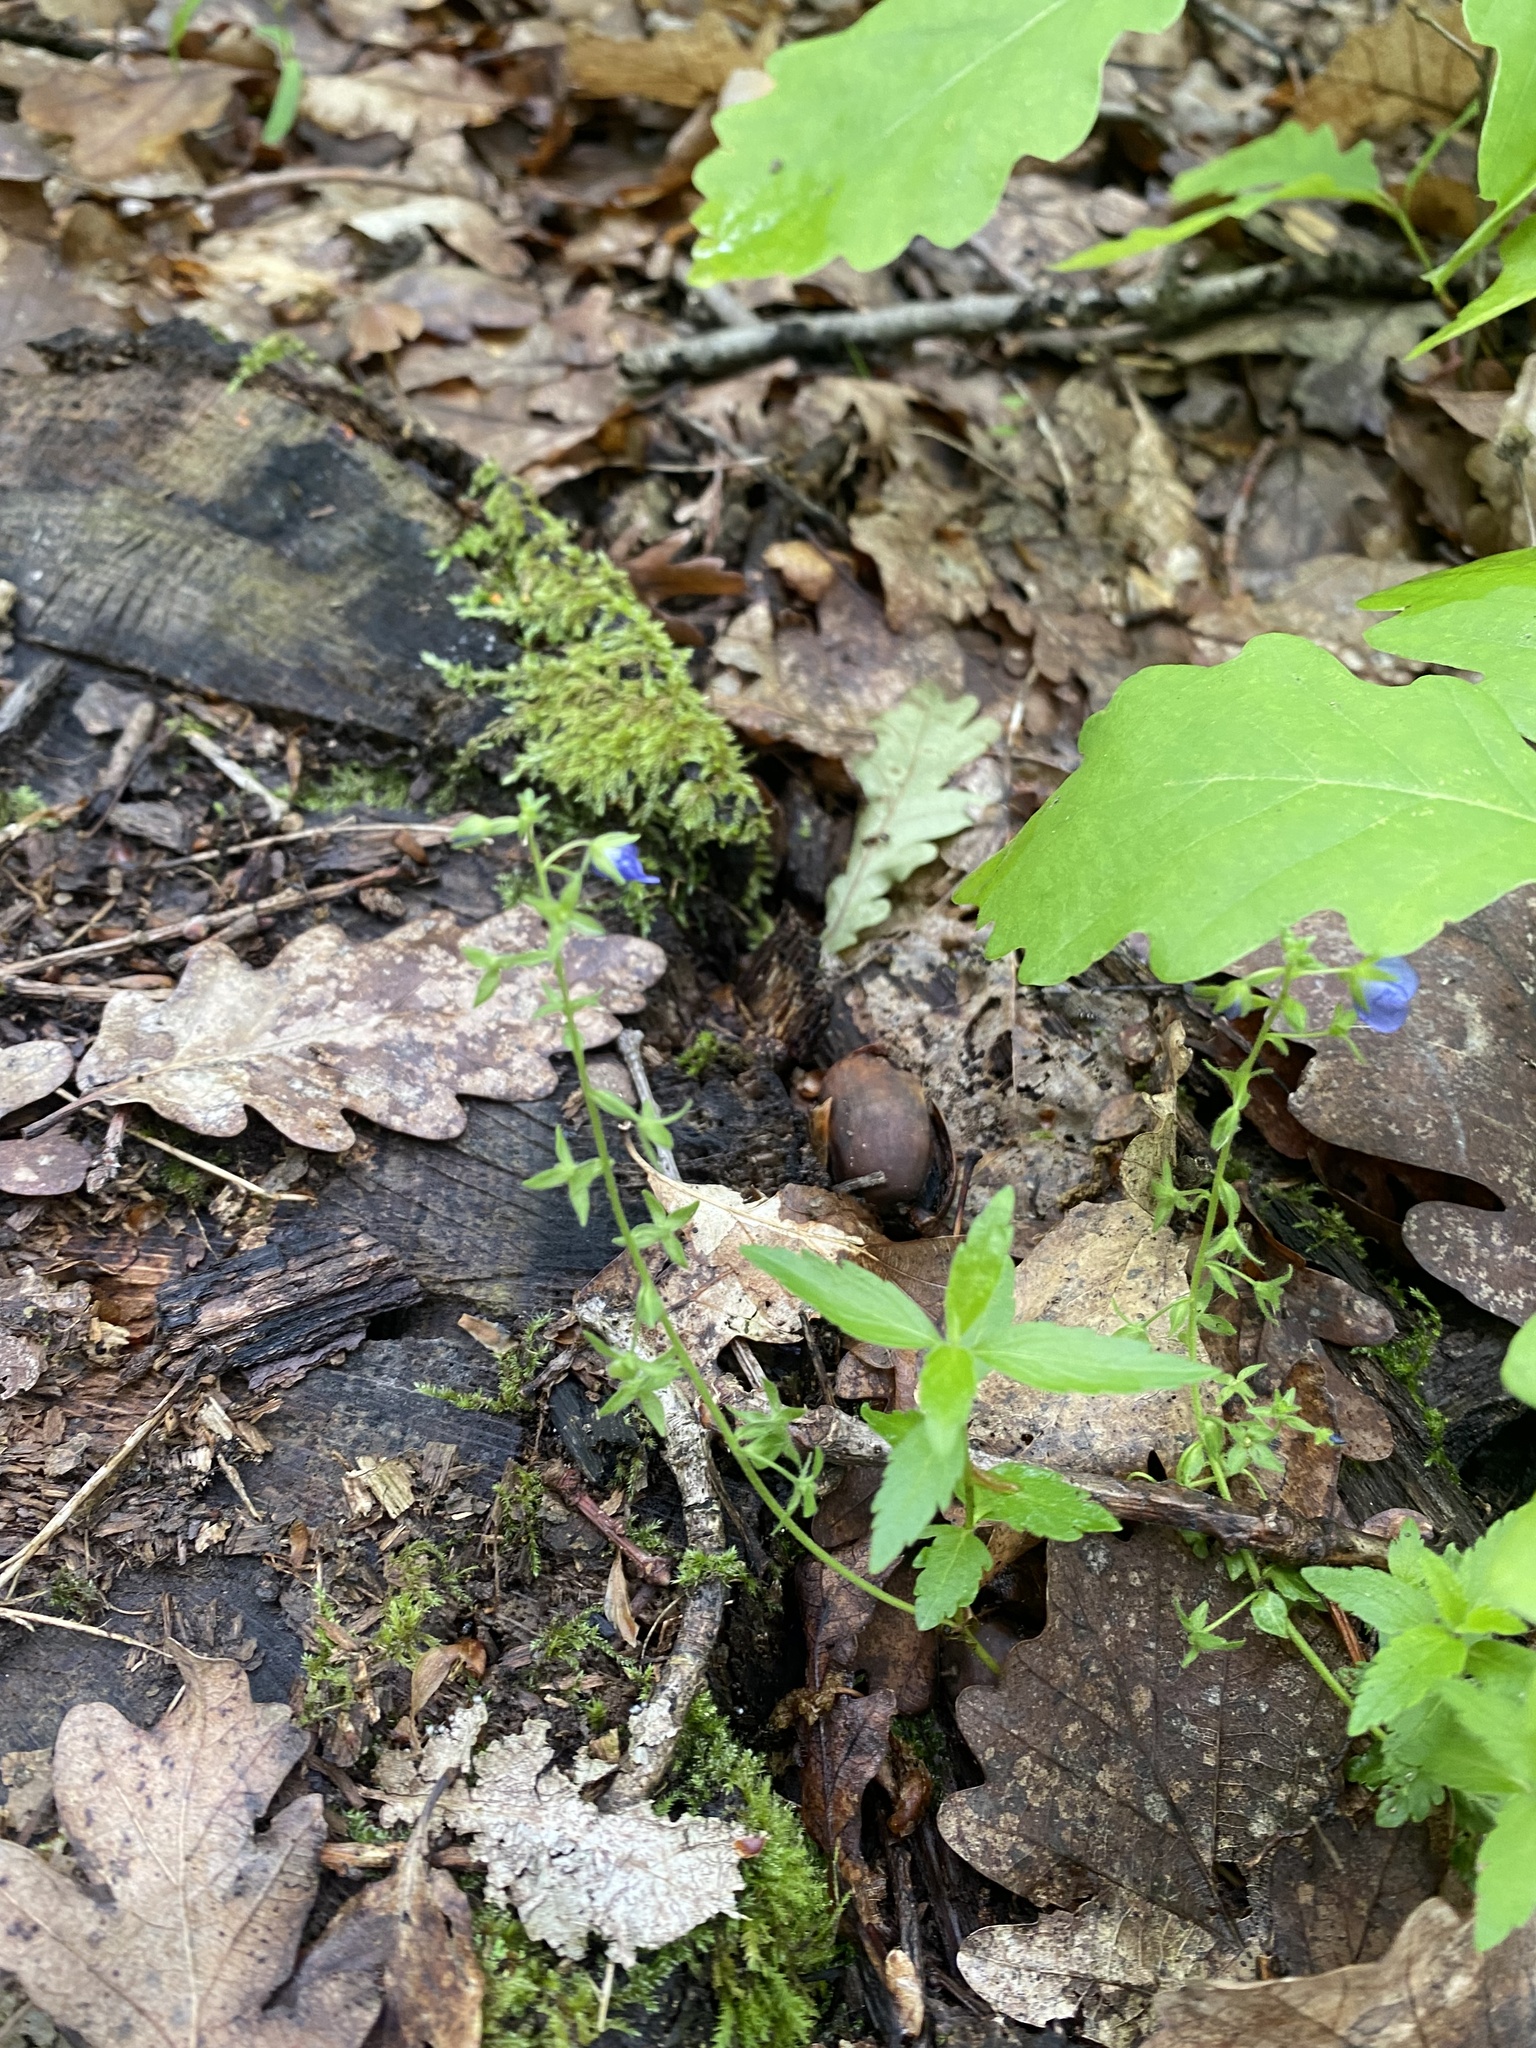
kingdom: Plantae
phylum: Tracheophyta
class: Magnoliopsida
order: Lamiales
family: Plantaginaceae
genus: Veronica
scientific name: Veronica
